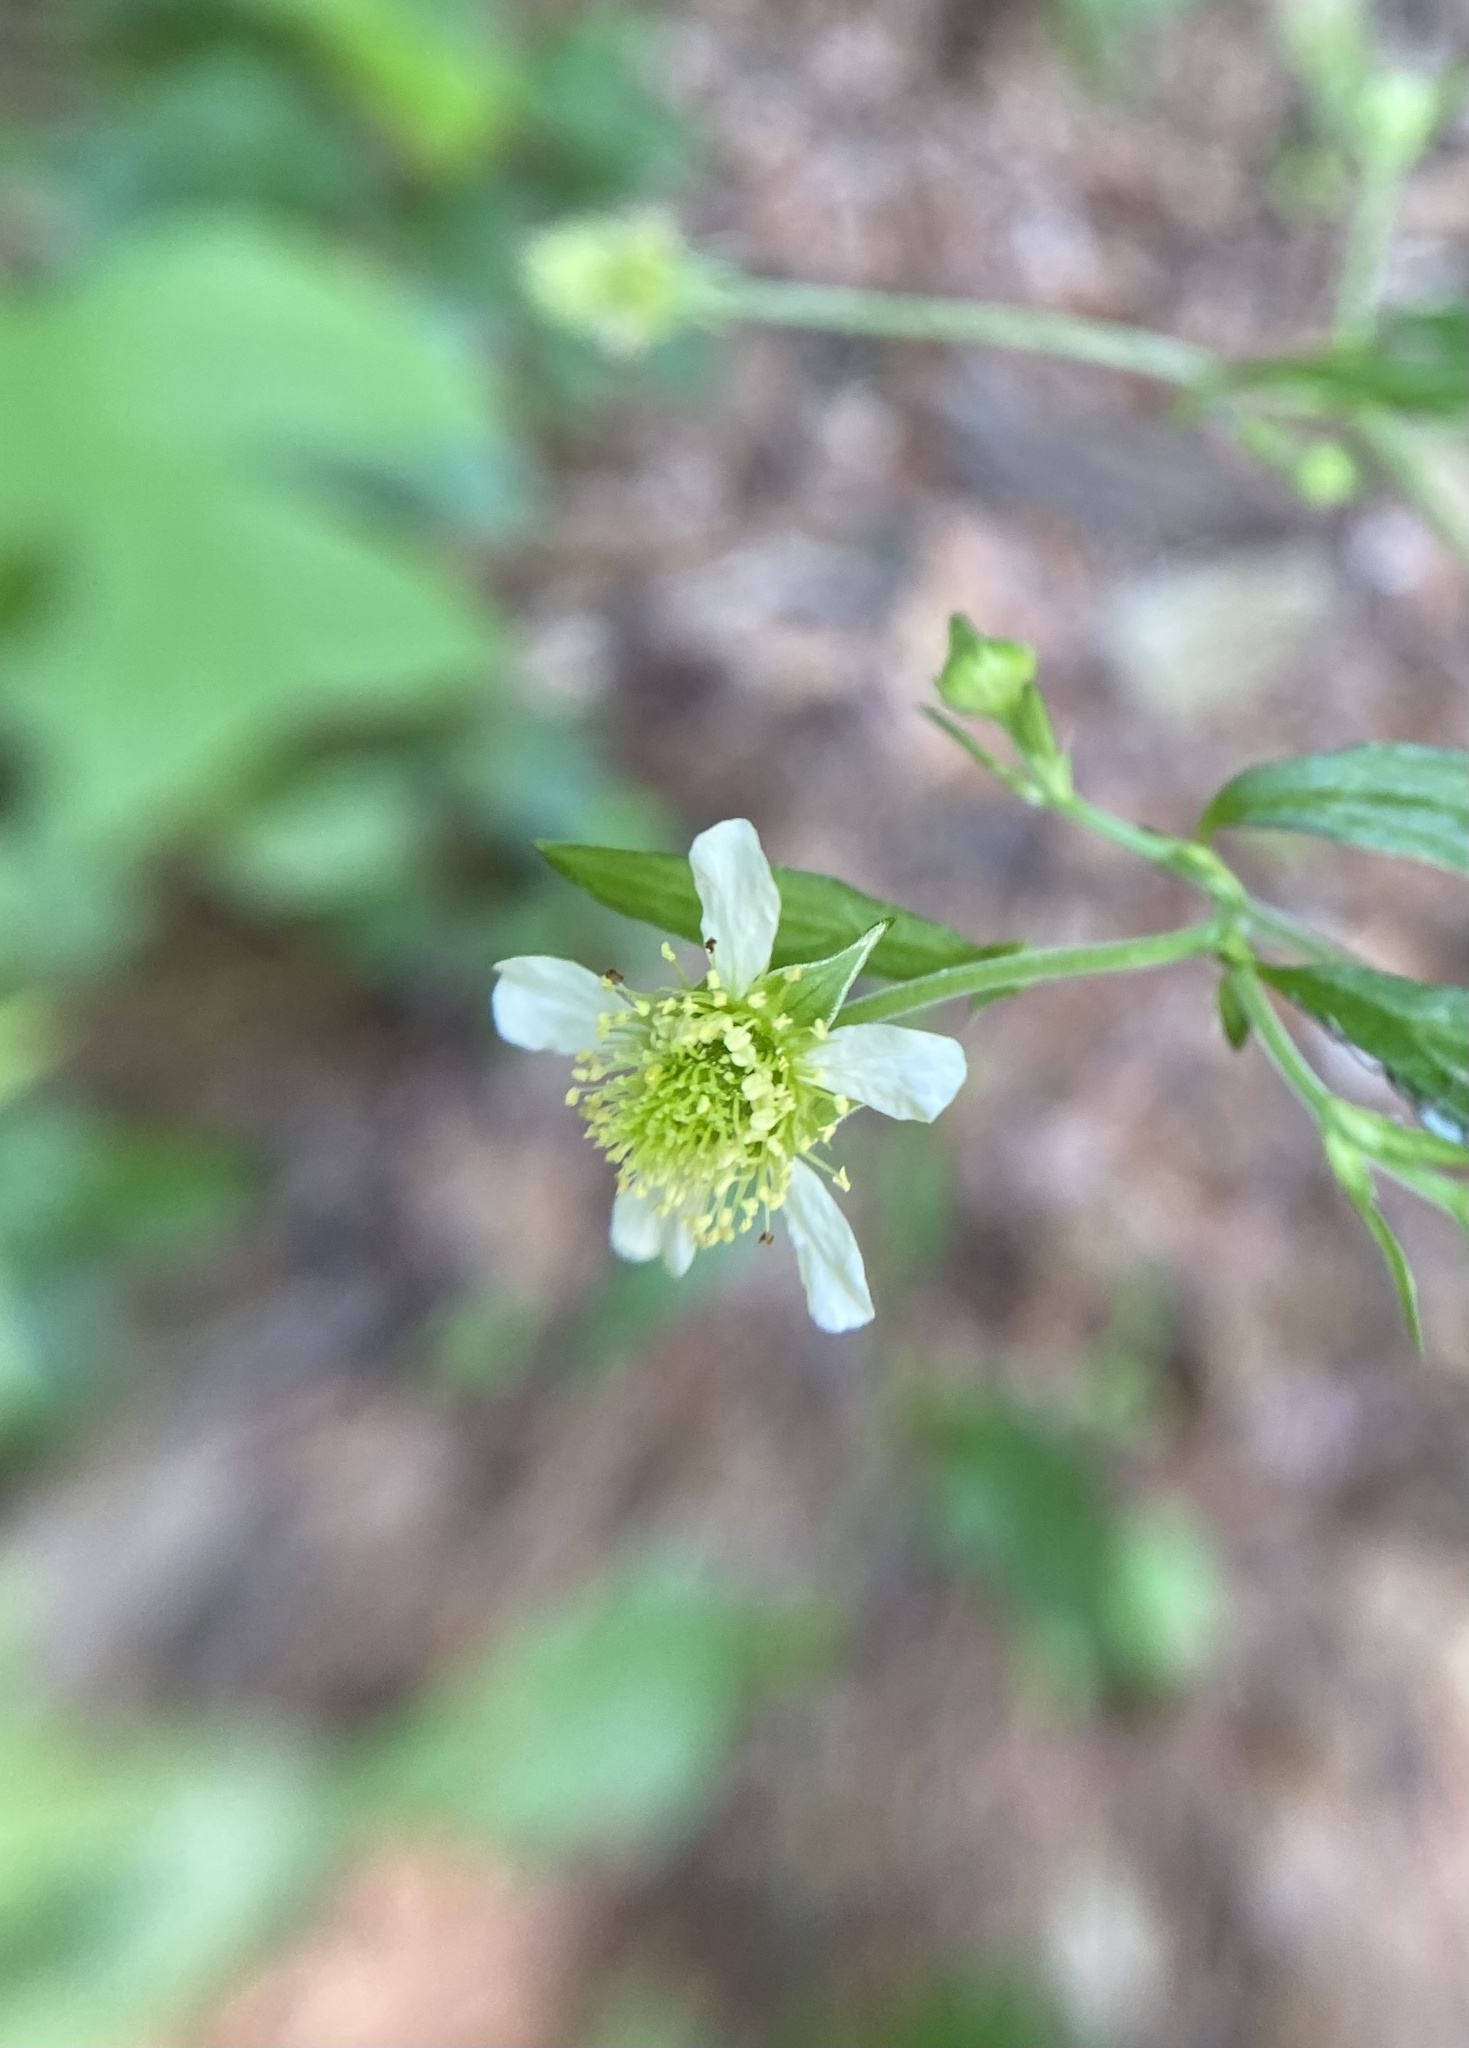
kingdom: Plantae
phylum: Tracheophyta
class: Magnoliopsida
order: Rosales
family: Rosaceae
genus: Geum
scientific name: Geum canadense
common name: White avens
